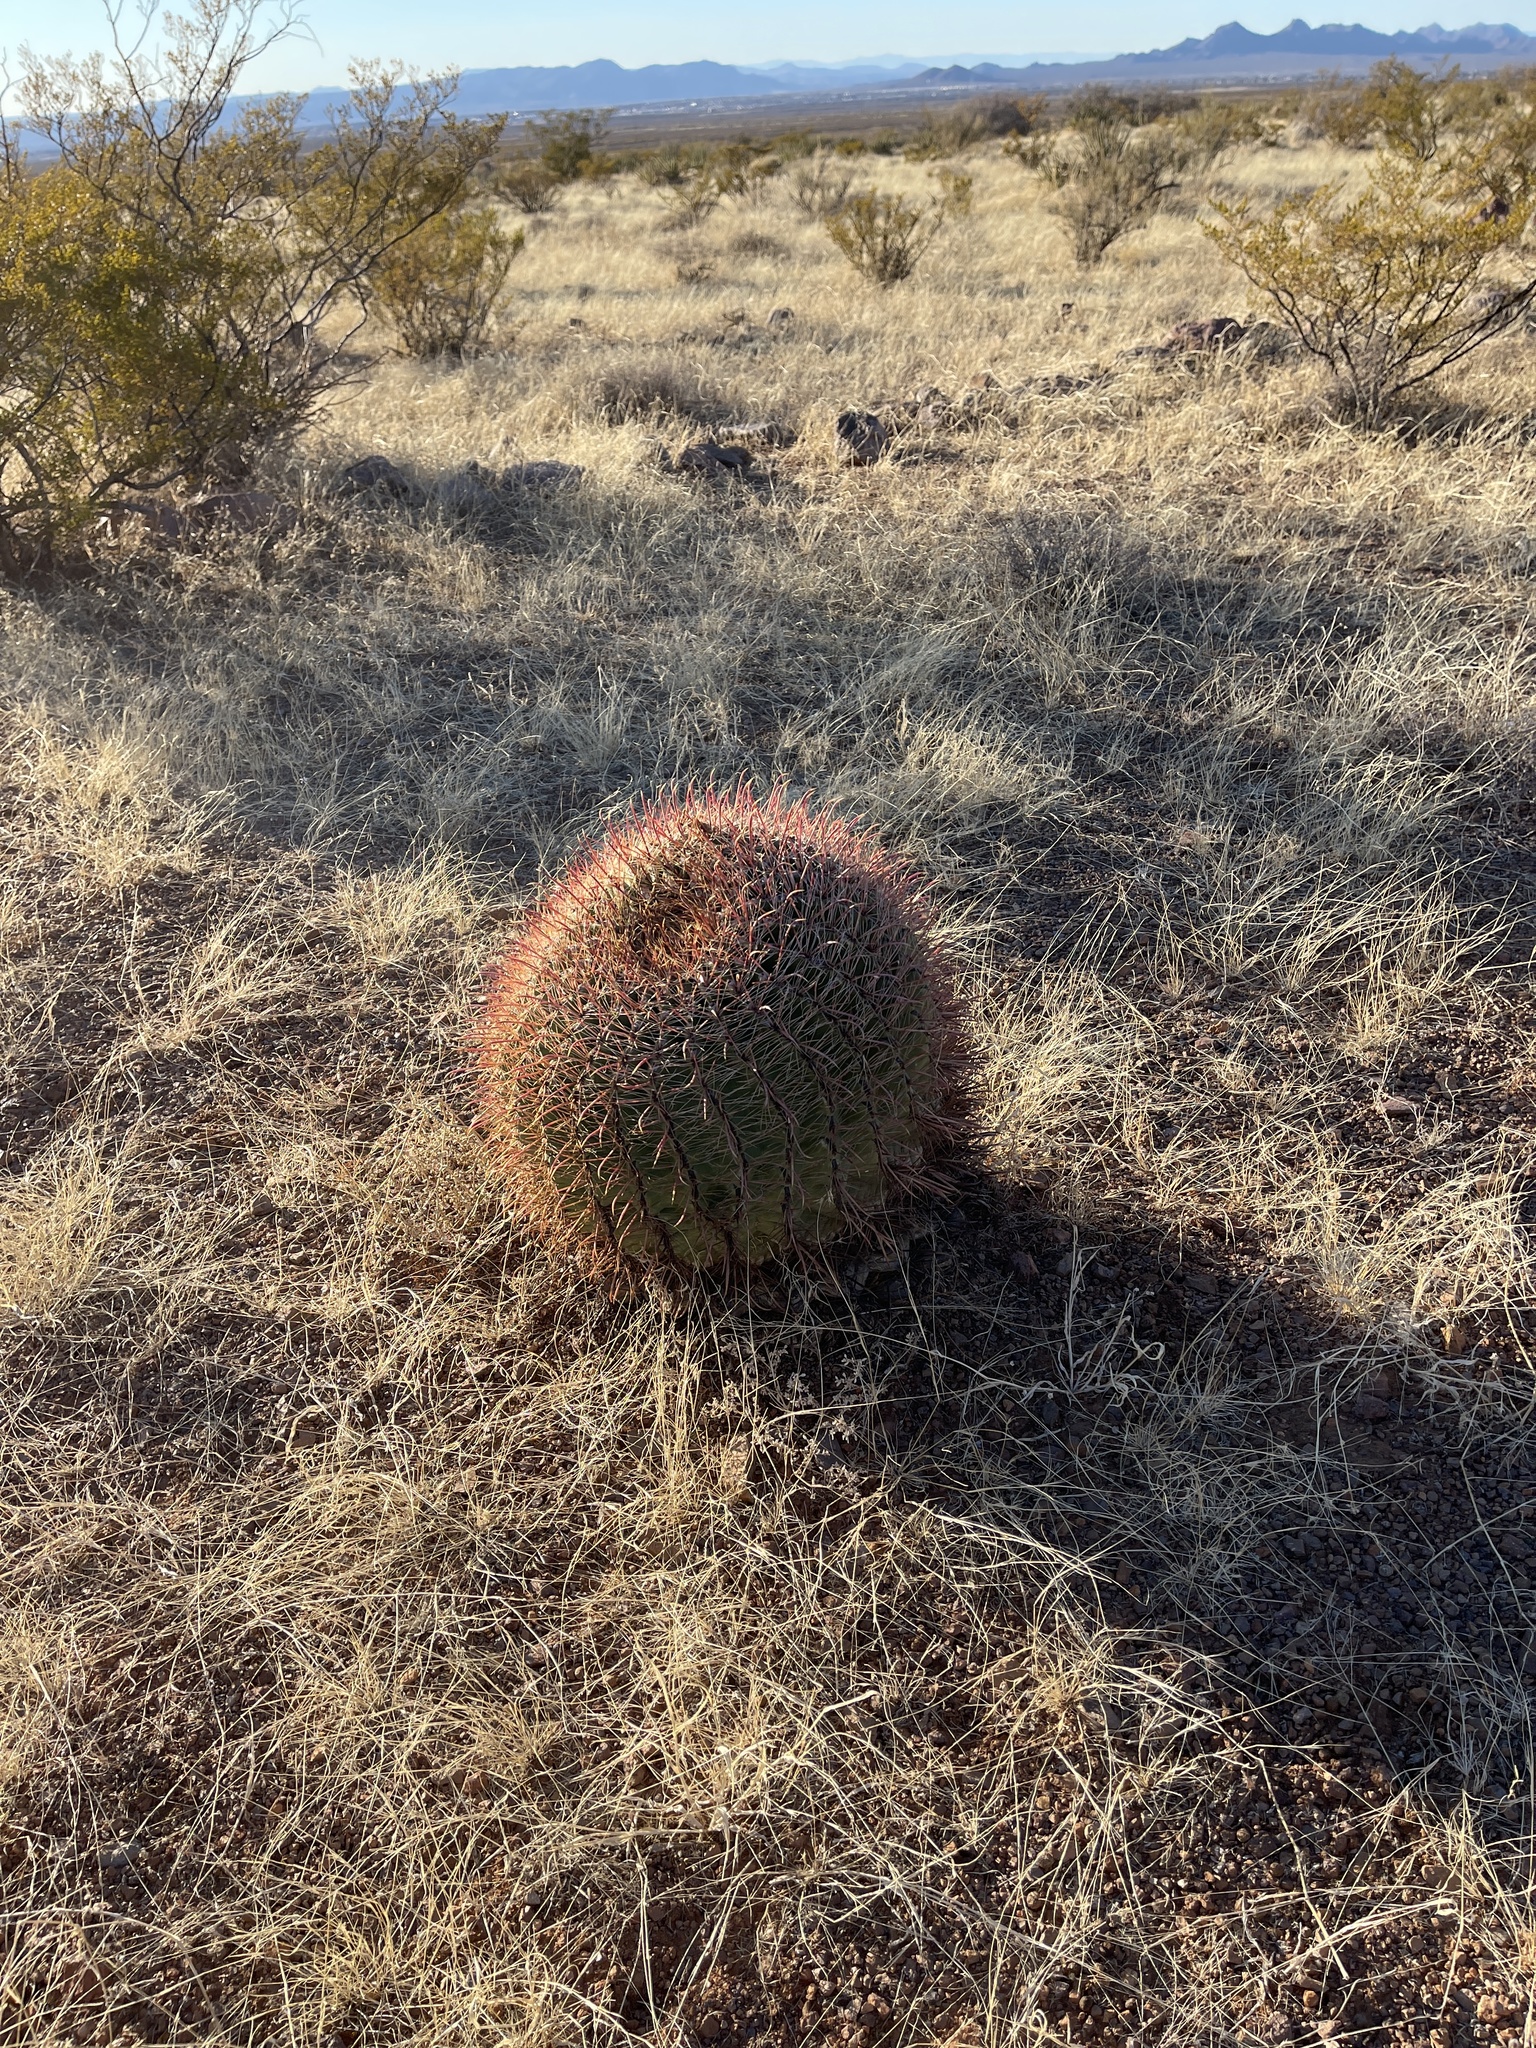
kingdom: Plantae
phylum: Tracheophyta
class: Magnoliopsida
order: Caryophyllales
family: Cactaceae
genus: Ferocactus
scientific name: Ferocactus wislizeni
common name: Candy barrel cactus
